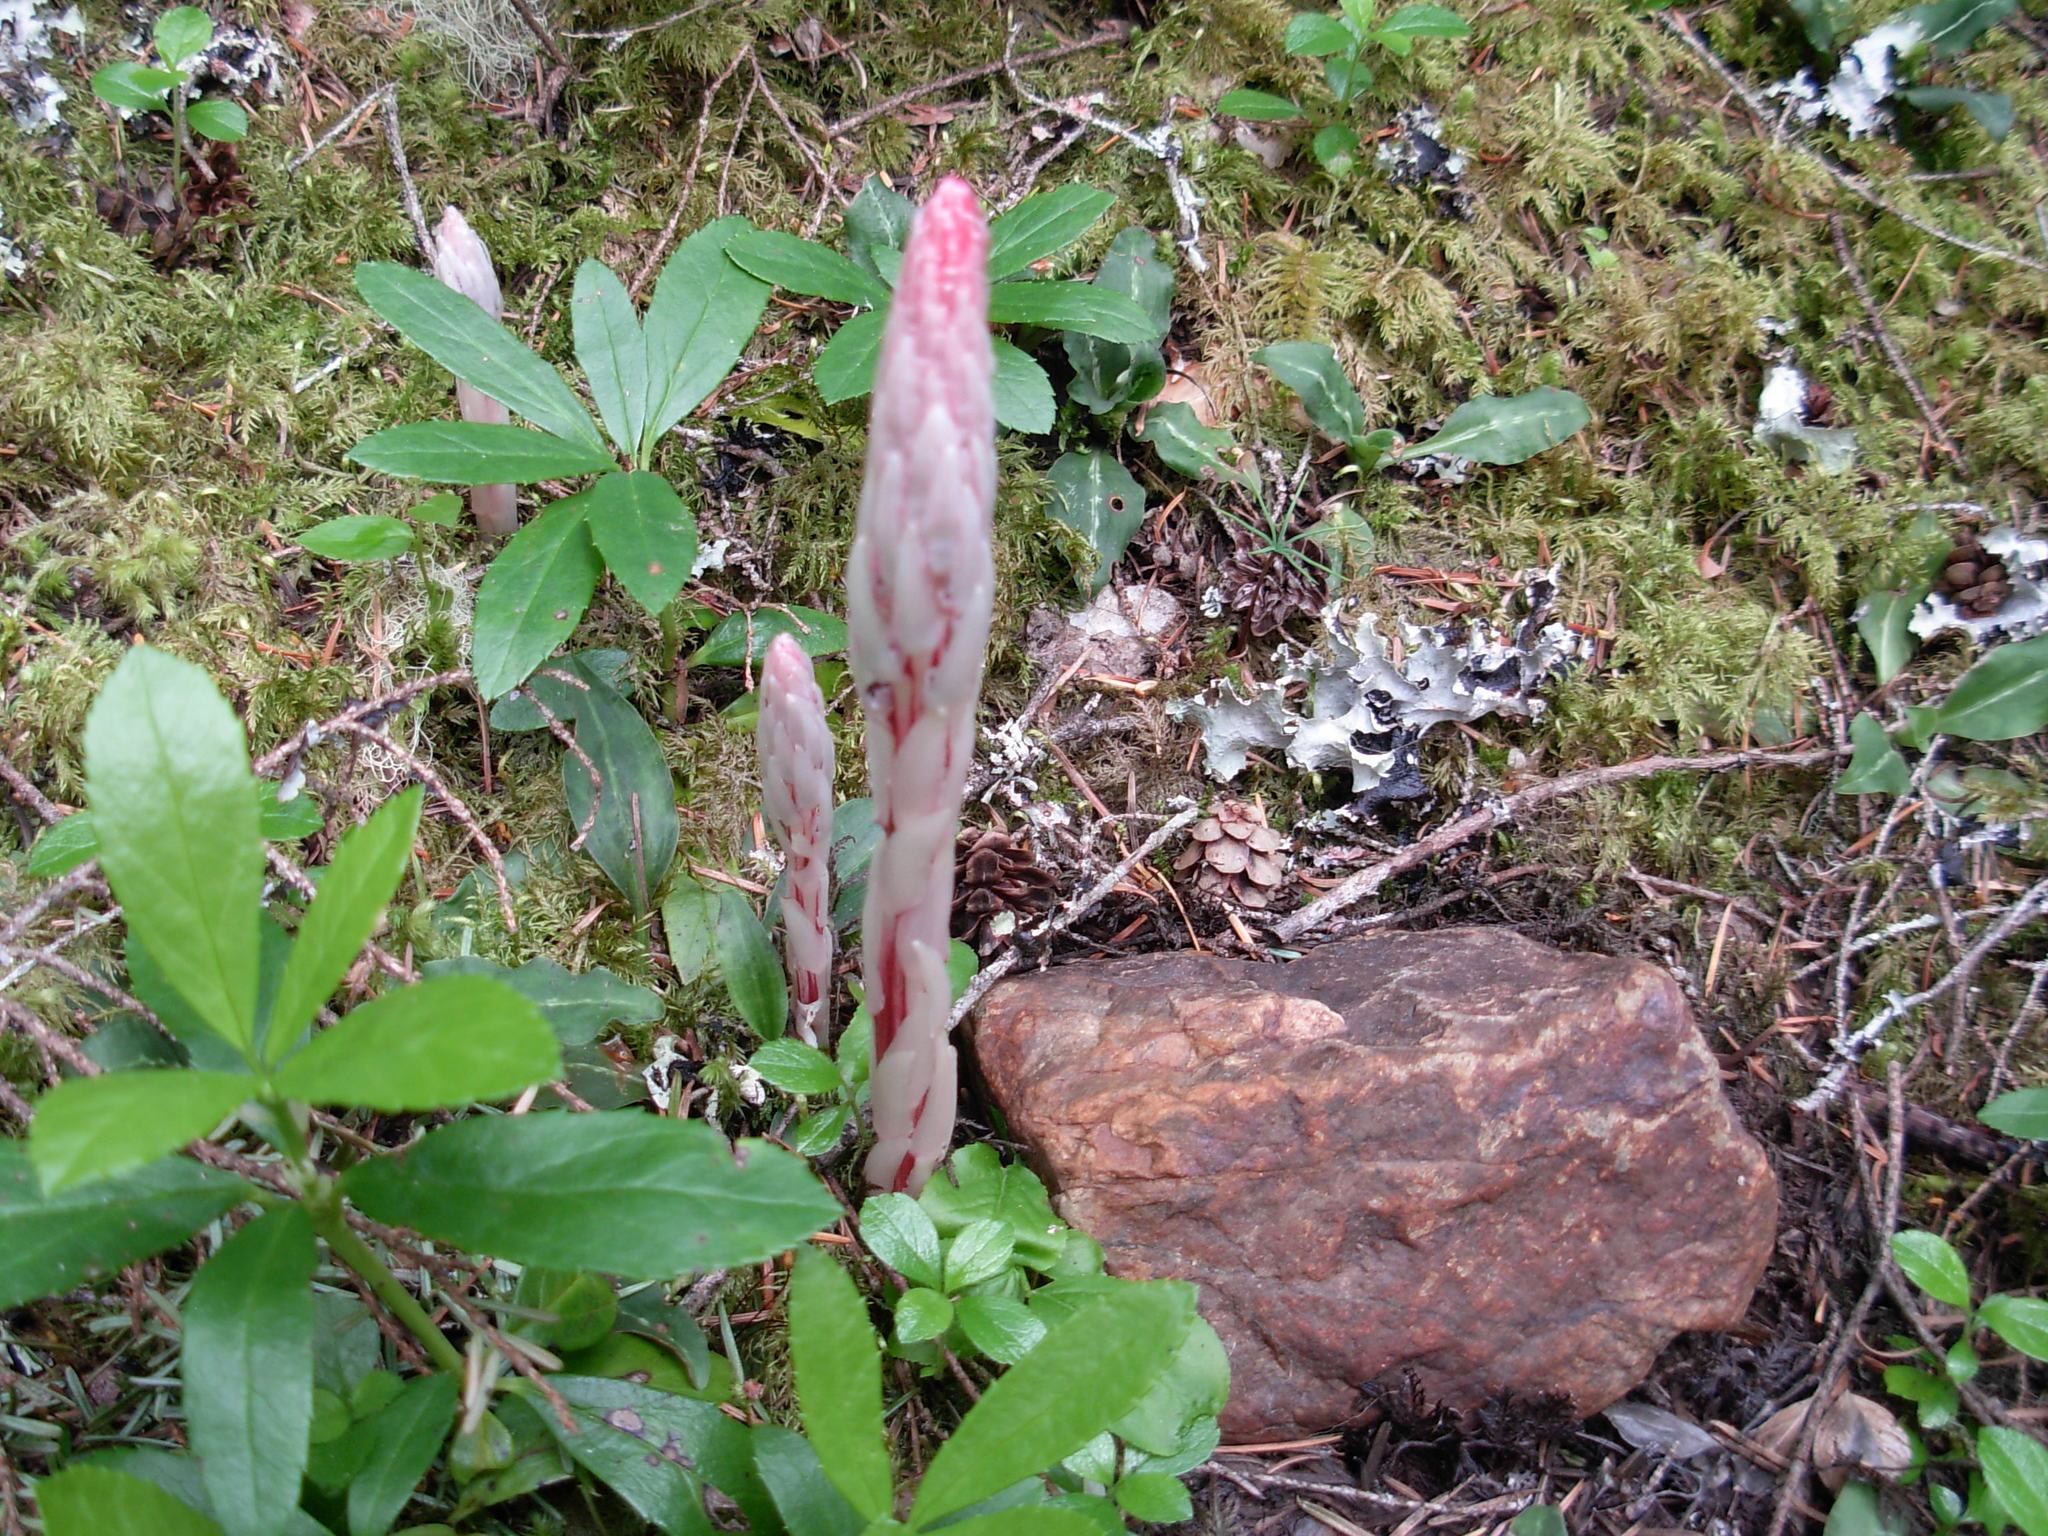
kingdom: Plantae
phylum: Tracheophyta
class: Magnoliopsida
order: Ericales
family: Ericaceae
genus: Allotropa
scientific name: Allotropa virgata
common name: Candy-striped allotropa
